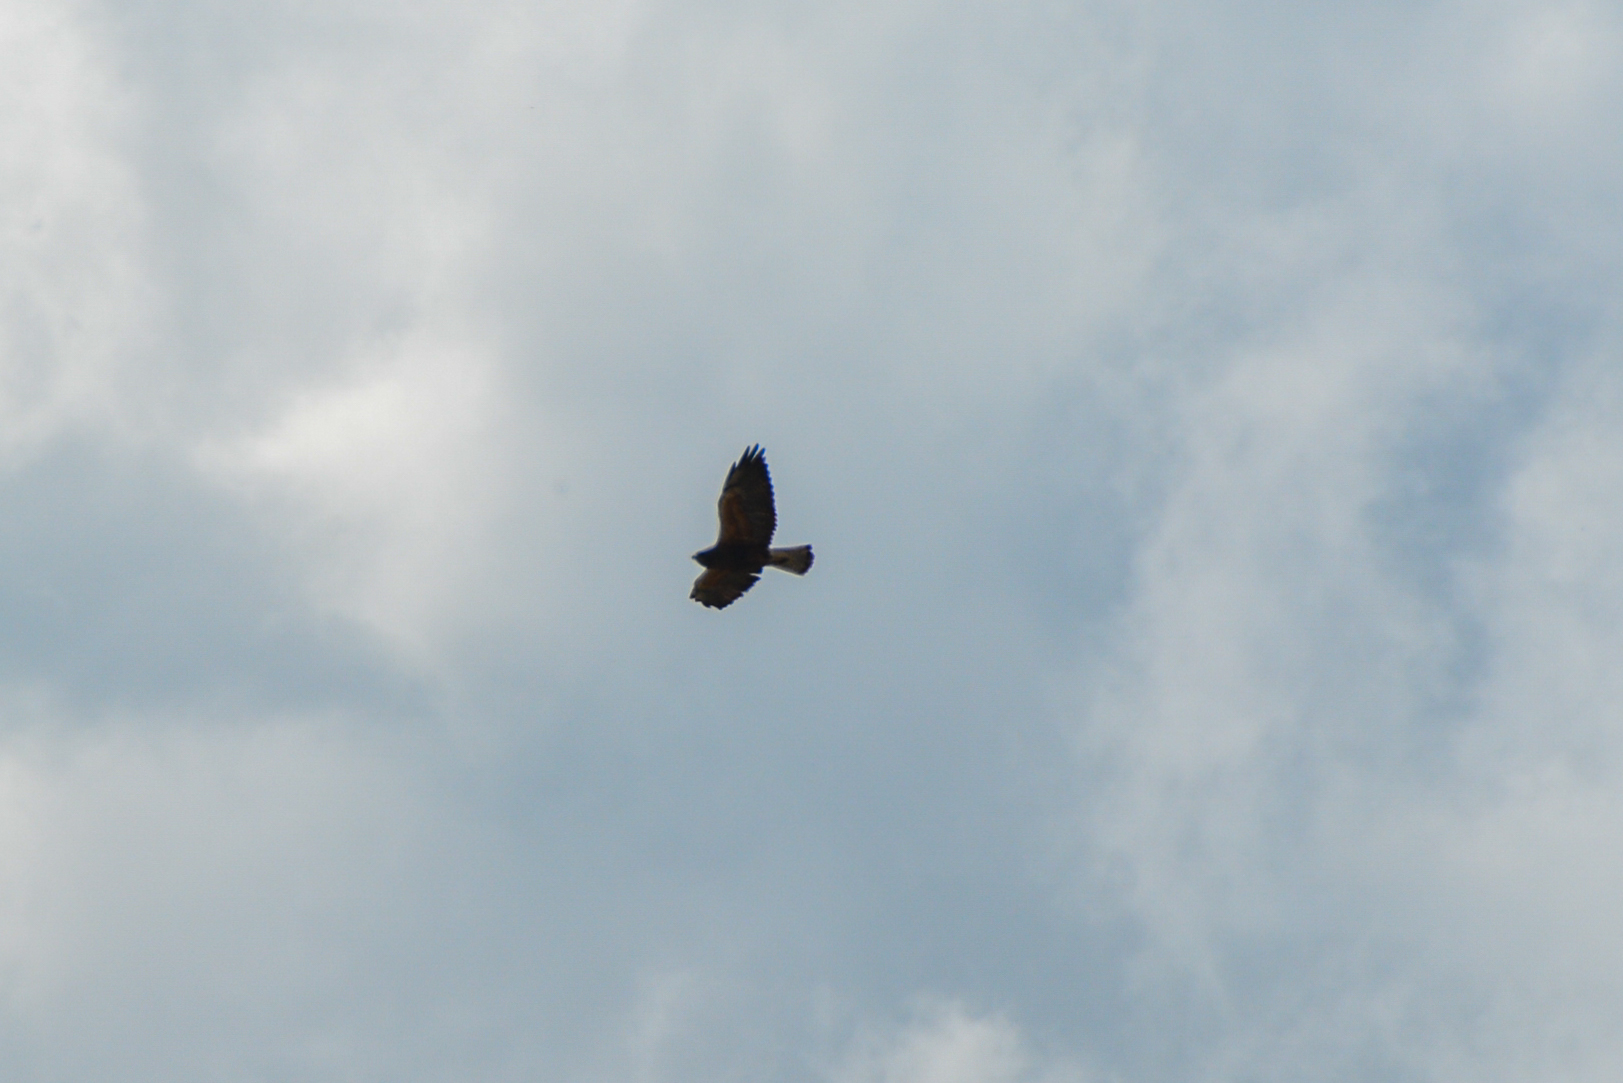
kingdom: Animalia
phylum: Chordata
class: Aves
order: Accipitriformes
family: Accipitridae
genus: Buteo
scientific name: Buteo swainsoni
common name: Swainson's hawk
